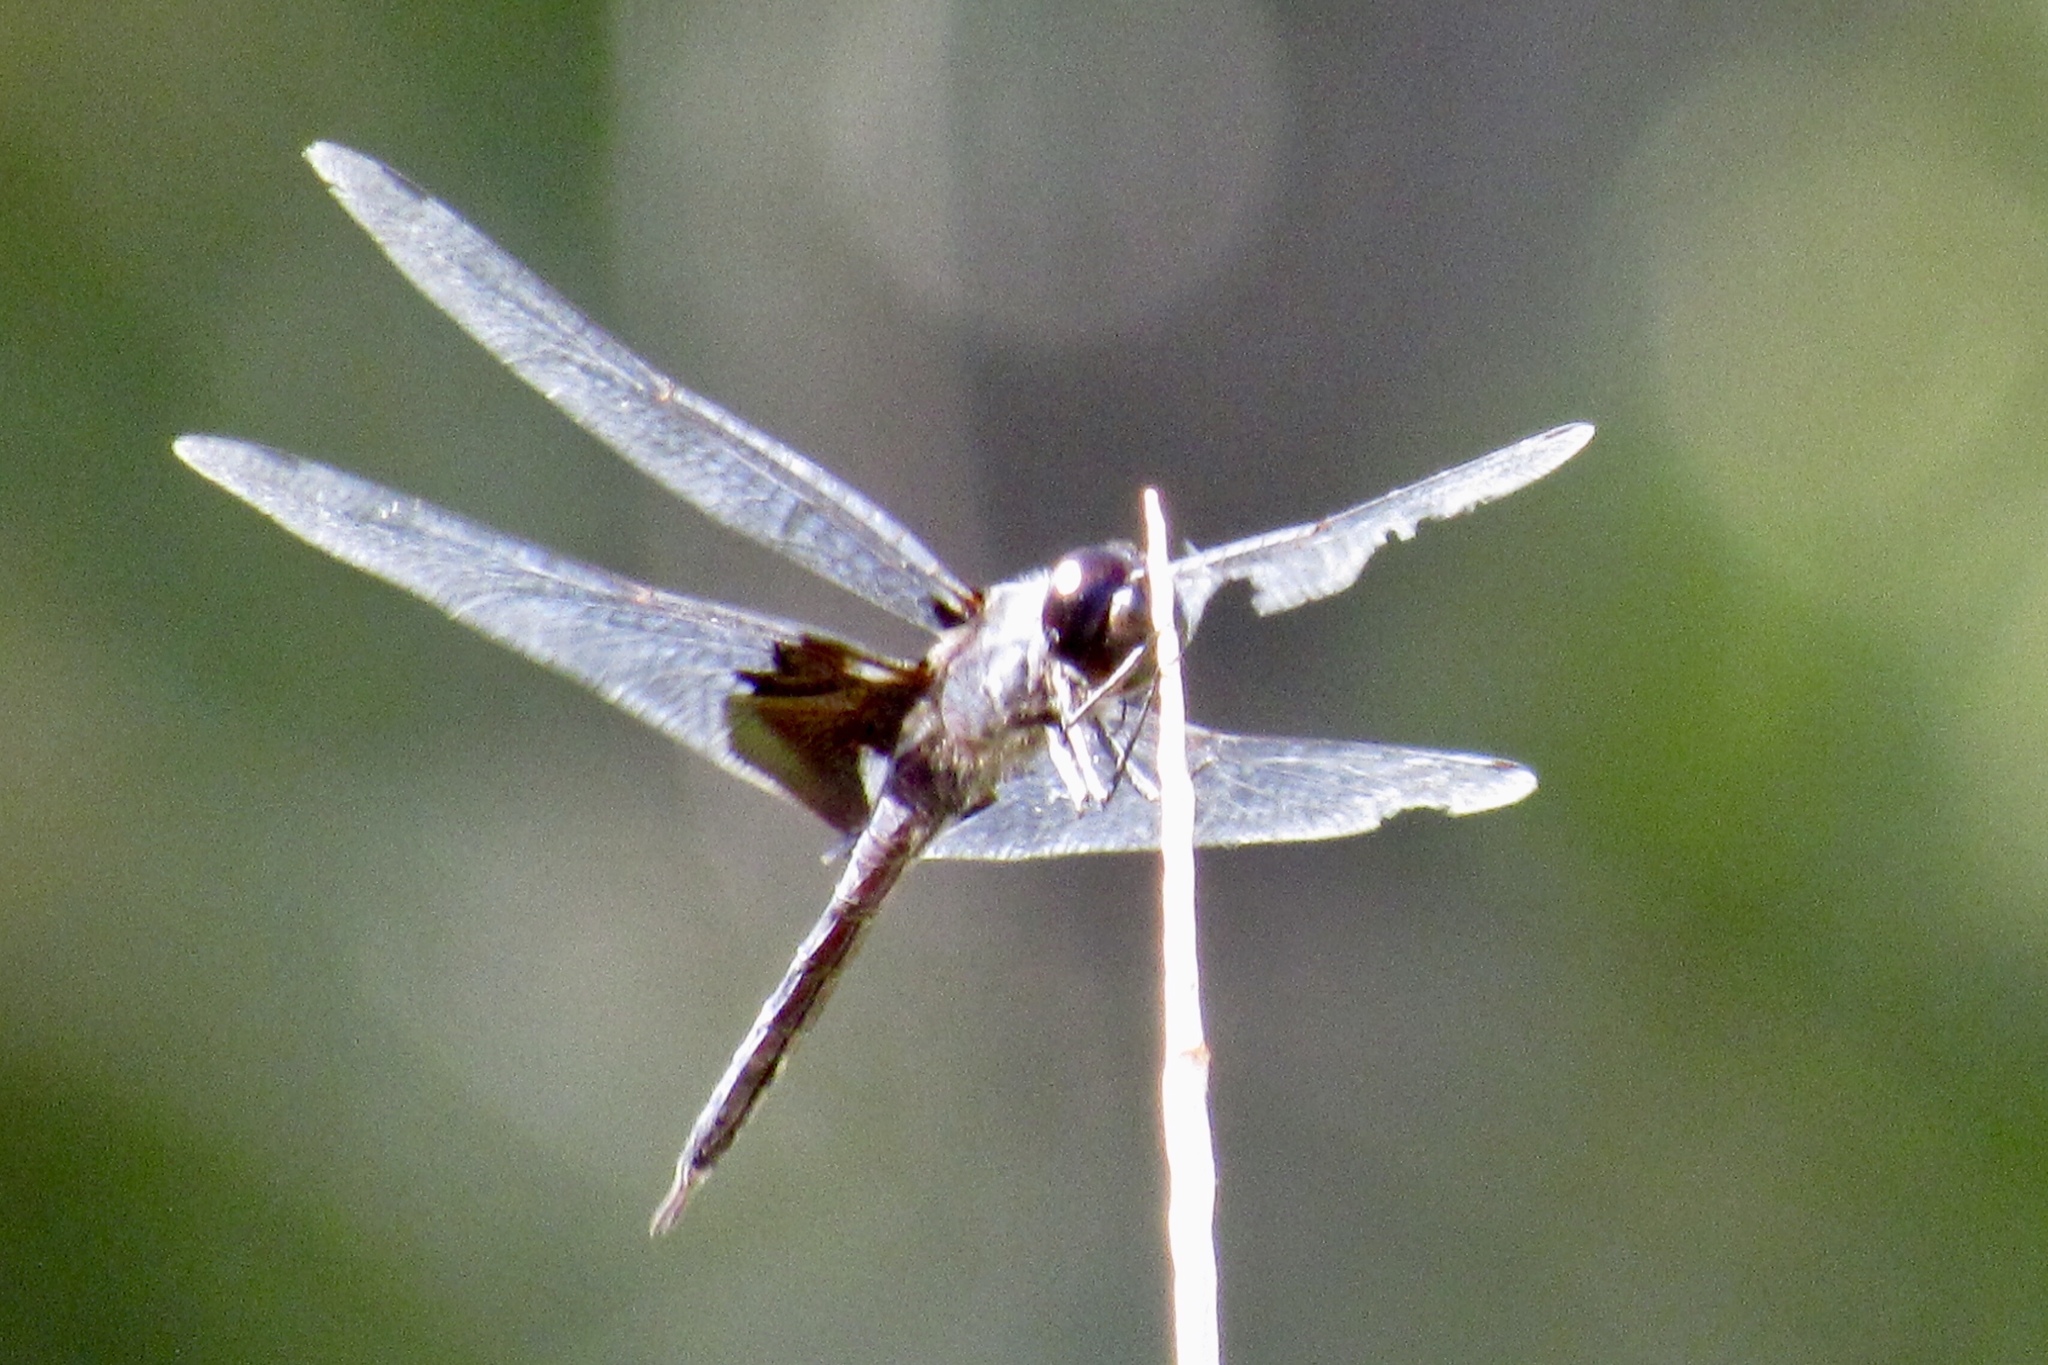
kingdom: Animalia
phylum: Arthropoda
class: Insecta
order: Odonata
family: Libellulidae
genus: Tramea
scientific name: Tramea lacerata
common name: Black saddlebags
